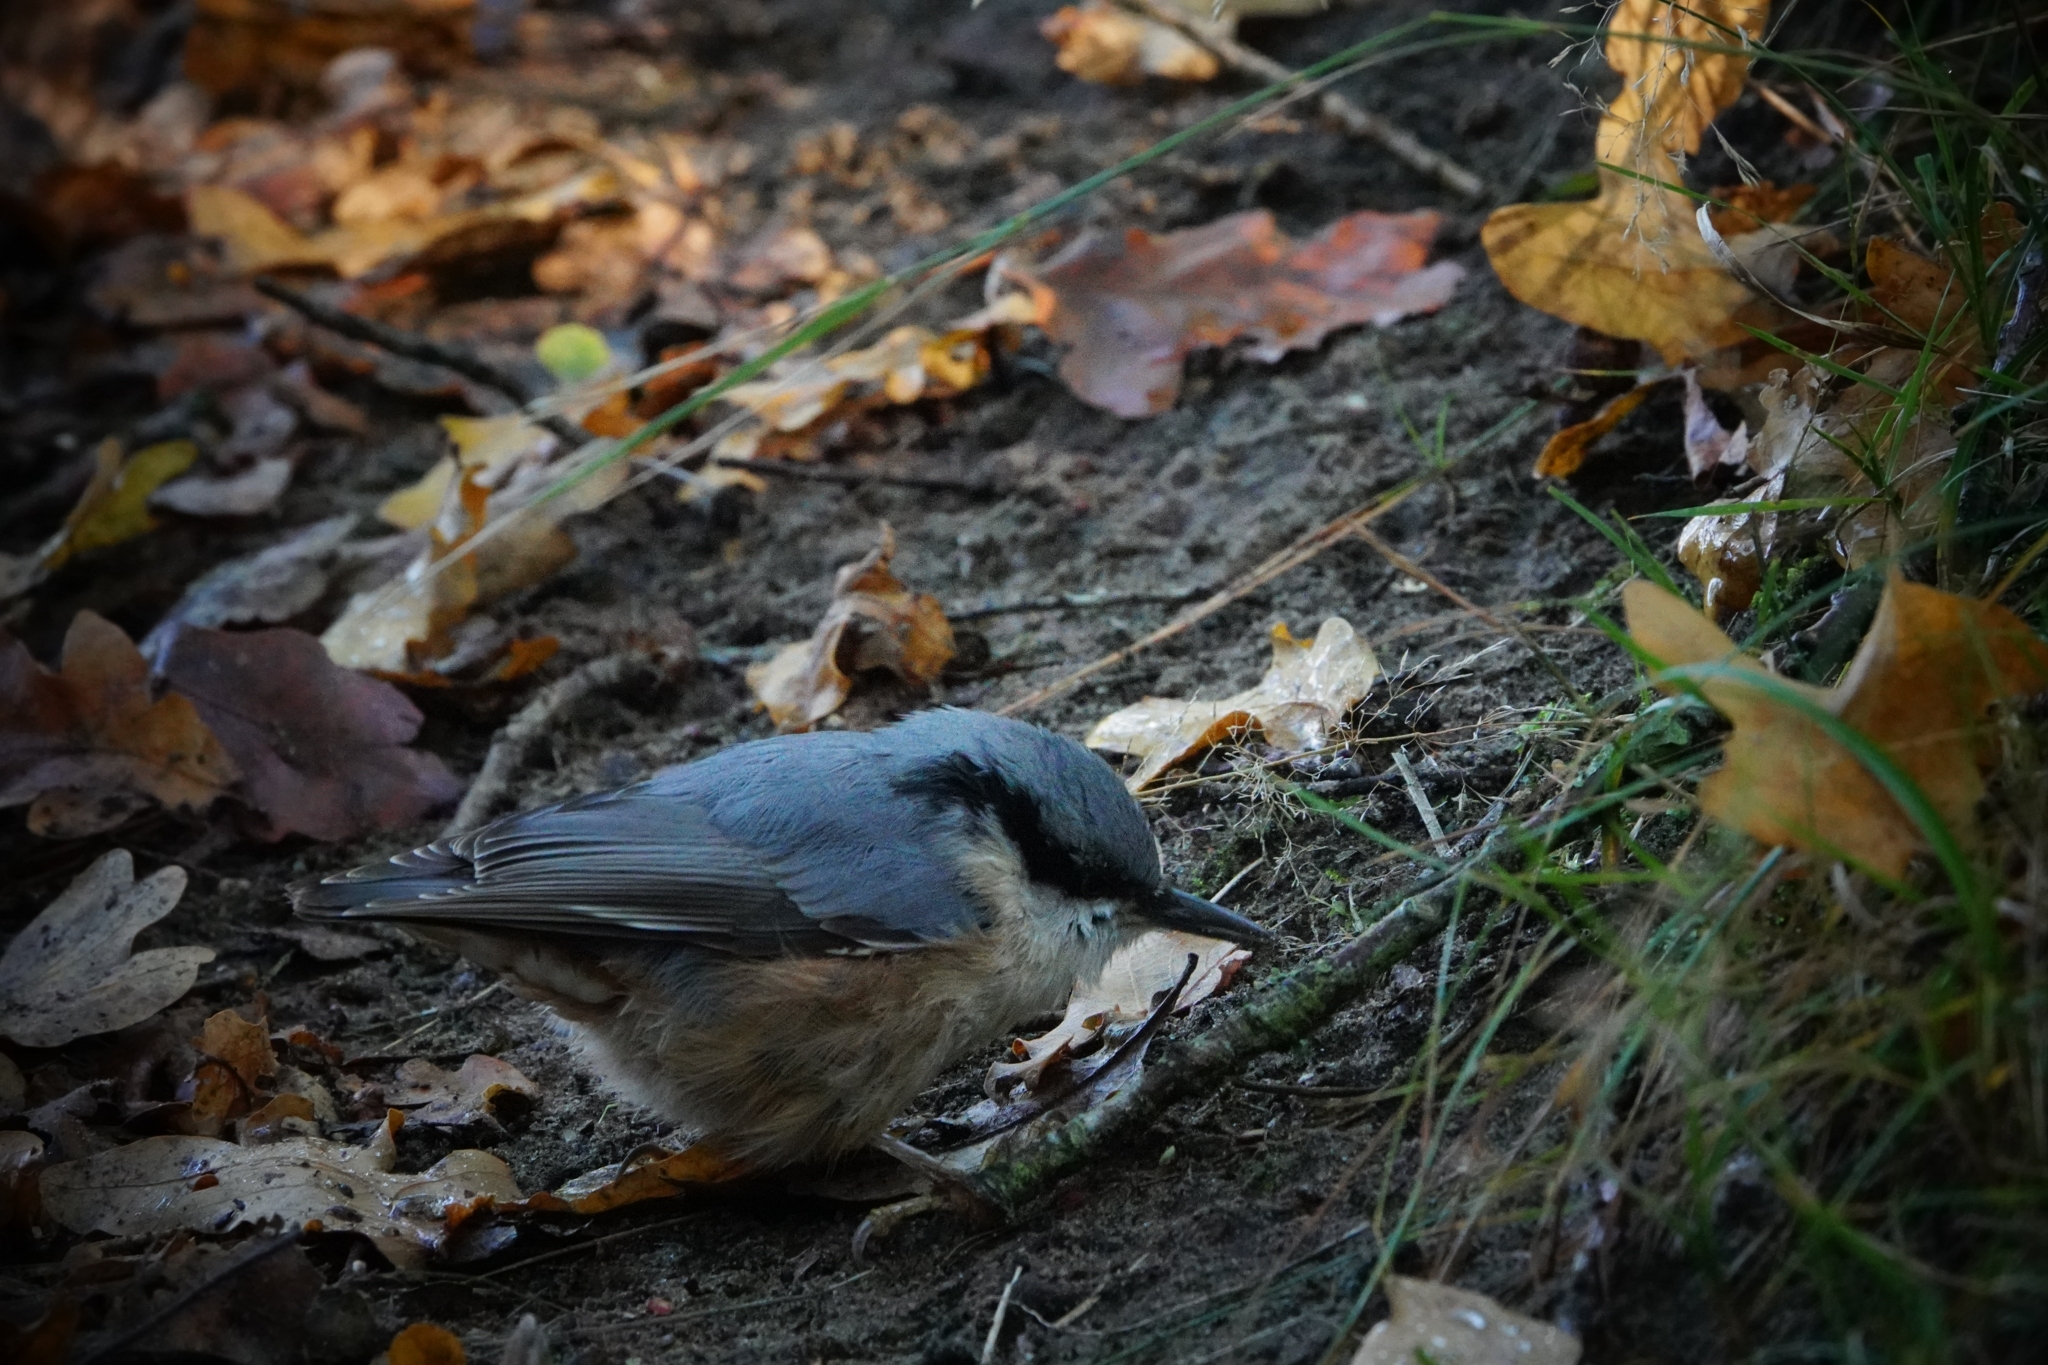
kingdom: Animalia
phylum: Chordata
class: Aves
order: Passeriformes
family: Sittidae
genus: Sitta
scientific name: Sitta europaea
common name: Eurasian nuthatch
